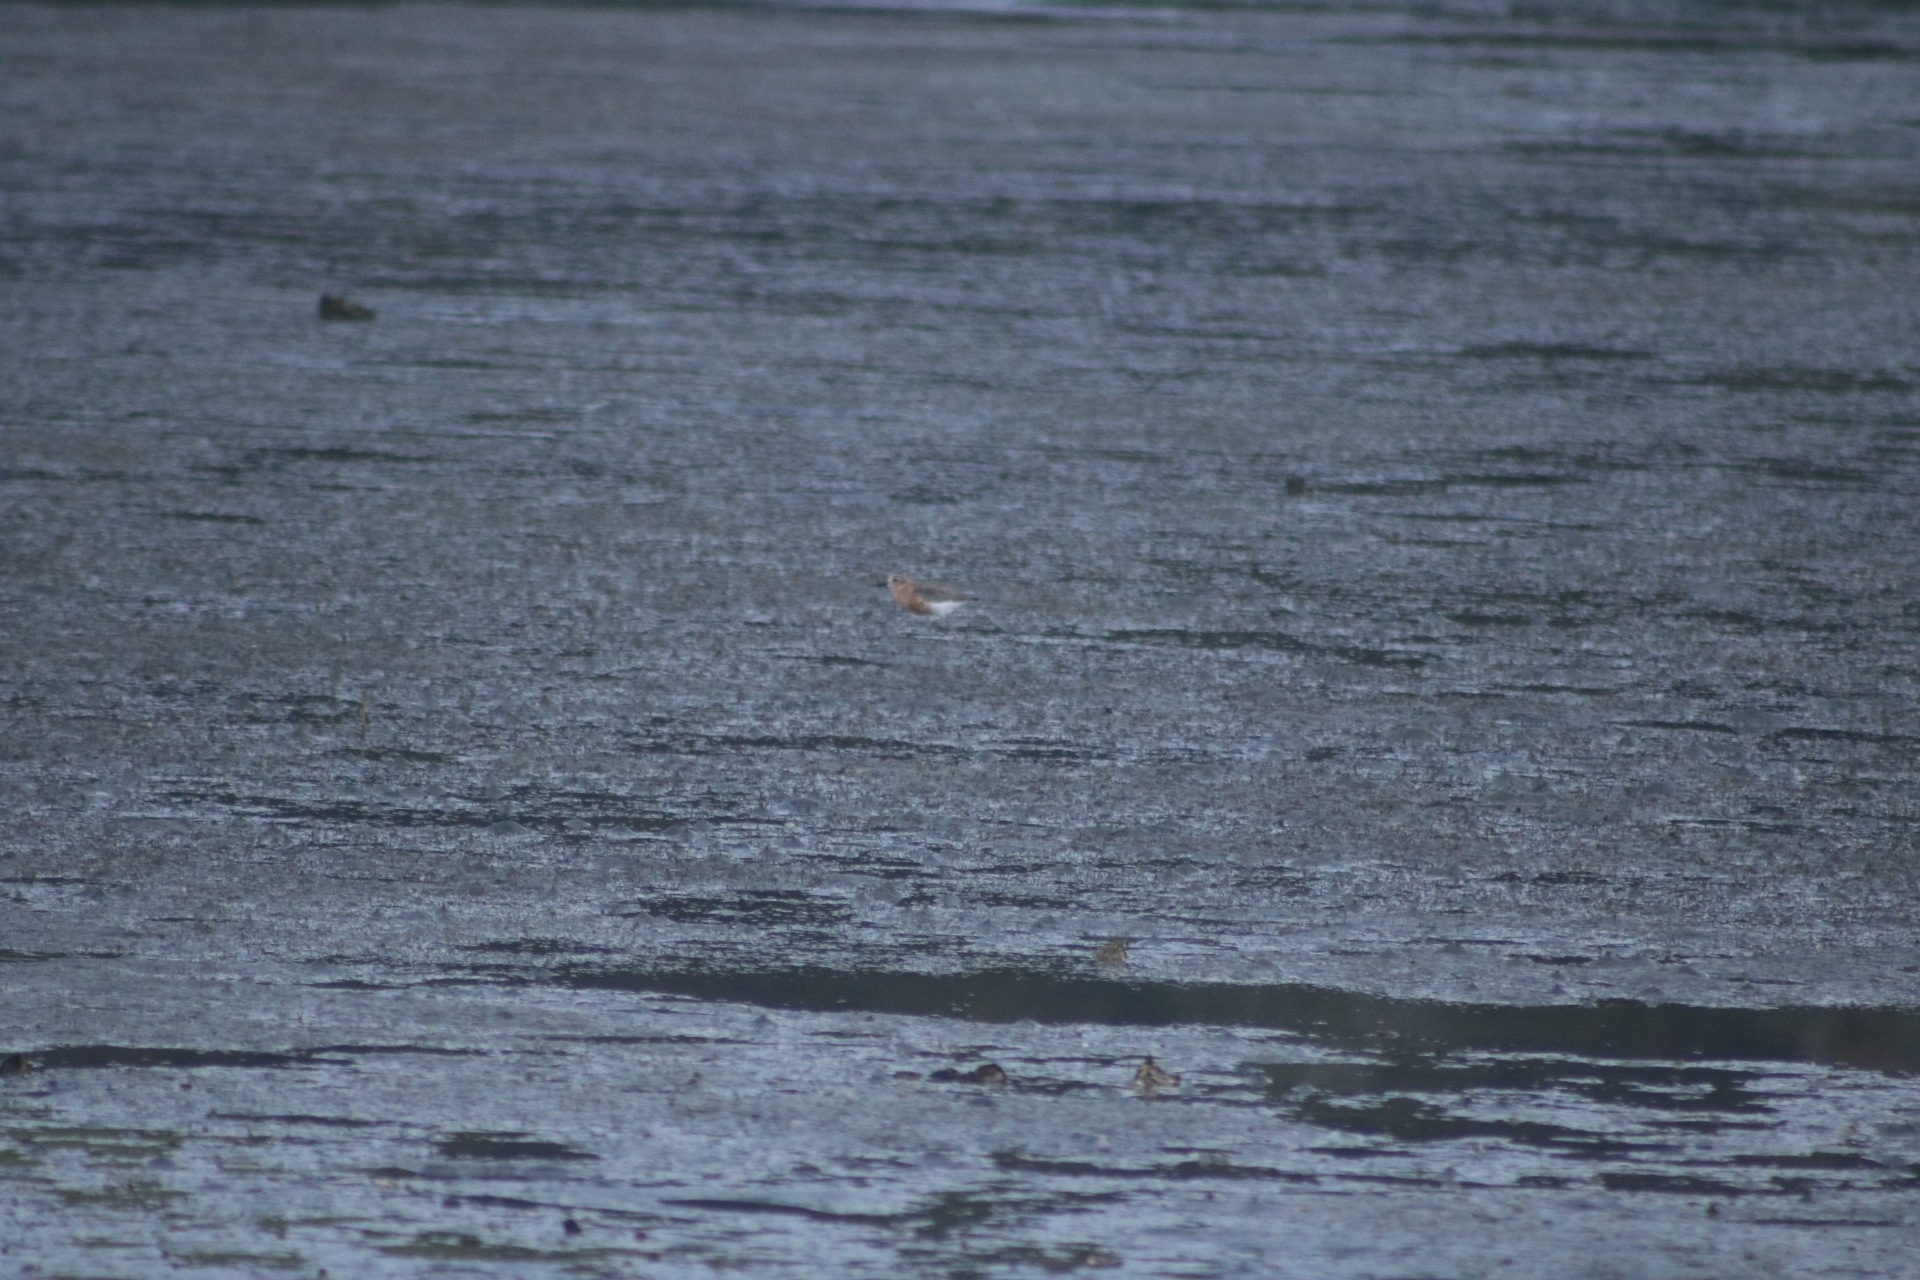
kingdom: Animalia
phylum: Chordata
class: Aves
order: Charadriiformes
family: Charadriidae
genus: Anarhynchus
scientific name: Anarhynchus
